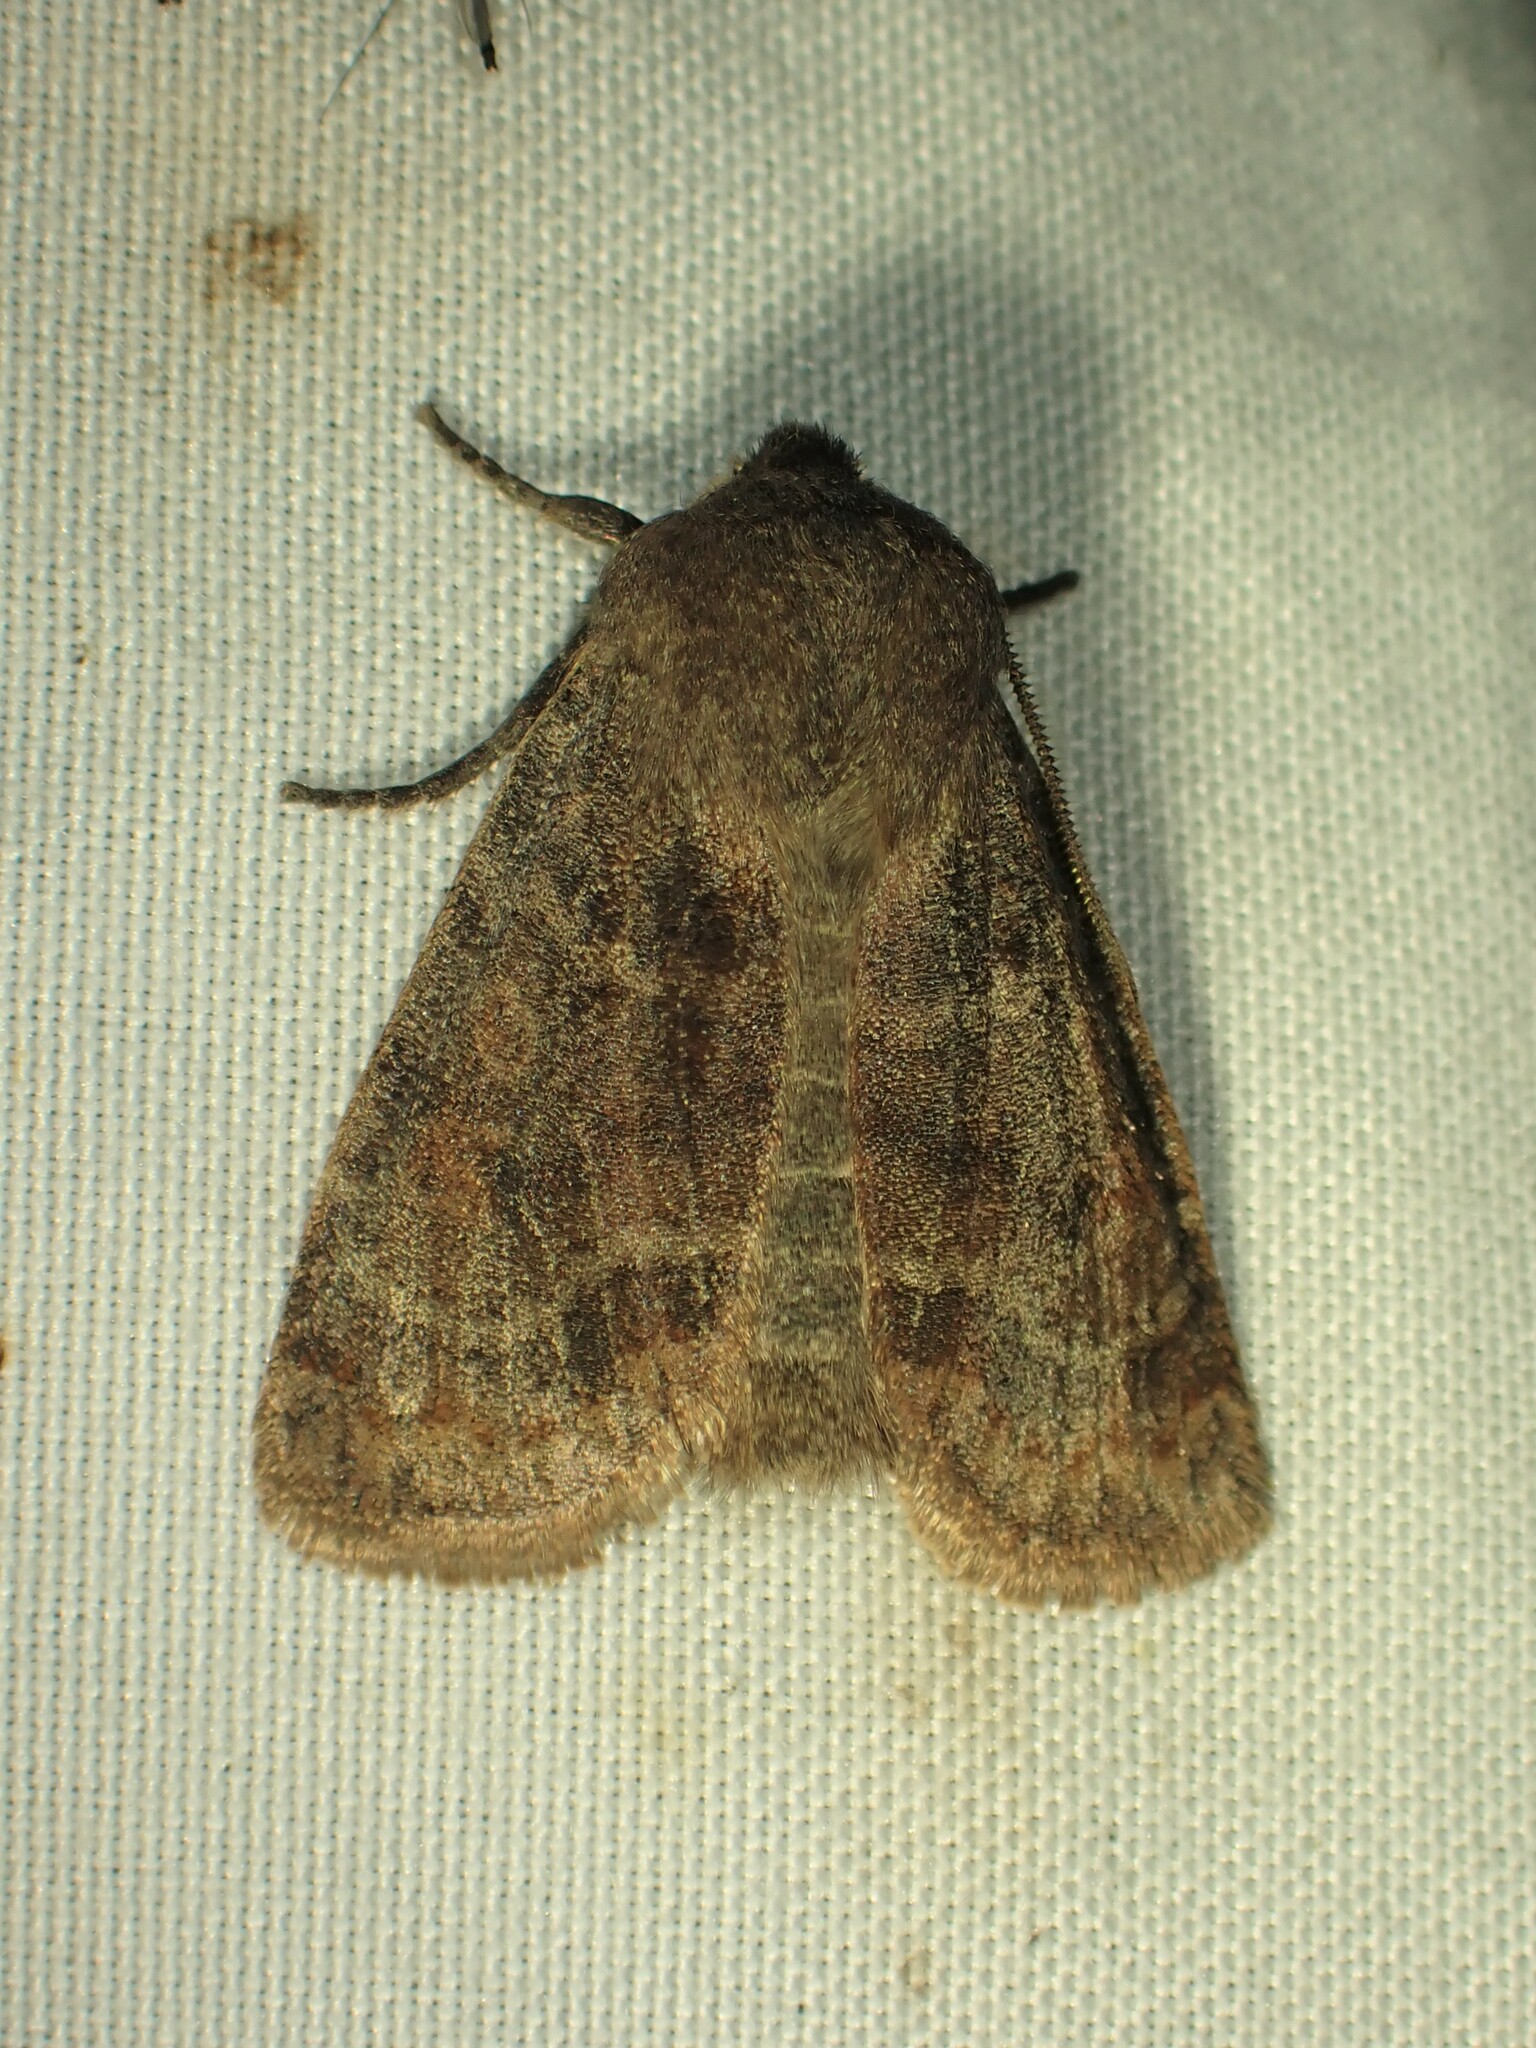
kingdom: Animalia
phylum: Arthropoda
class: Insecta
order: Lepidoptera
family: Noctuidae
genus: Homoglaea
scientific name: Homoglaea hircina
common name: Goat sallow
